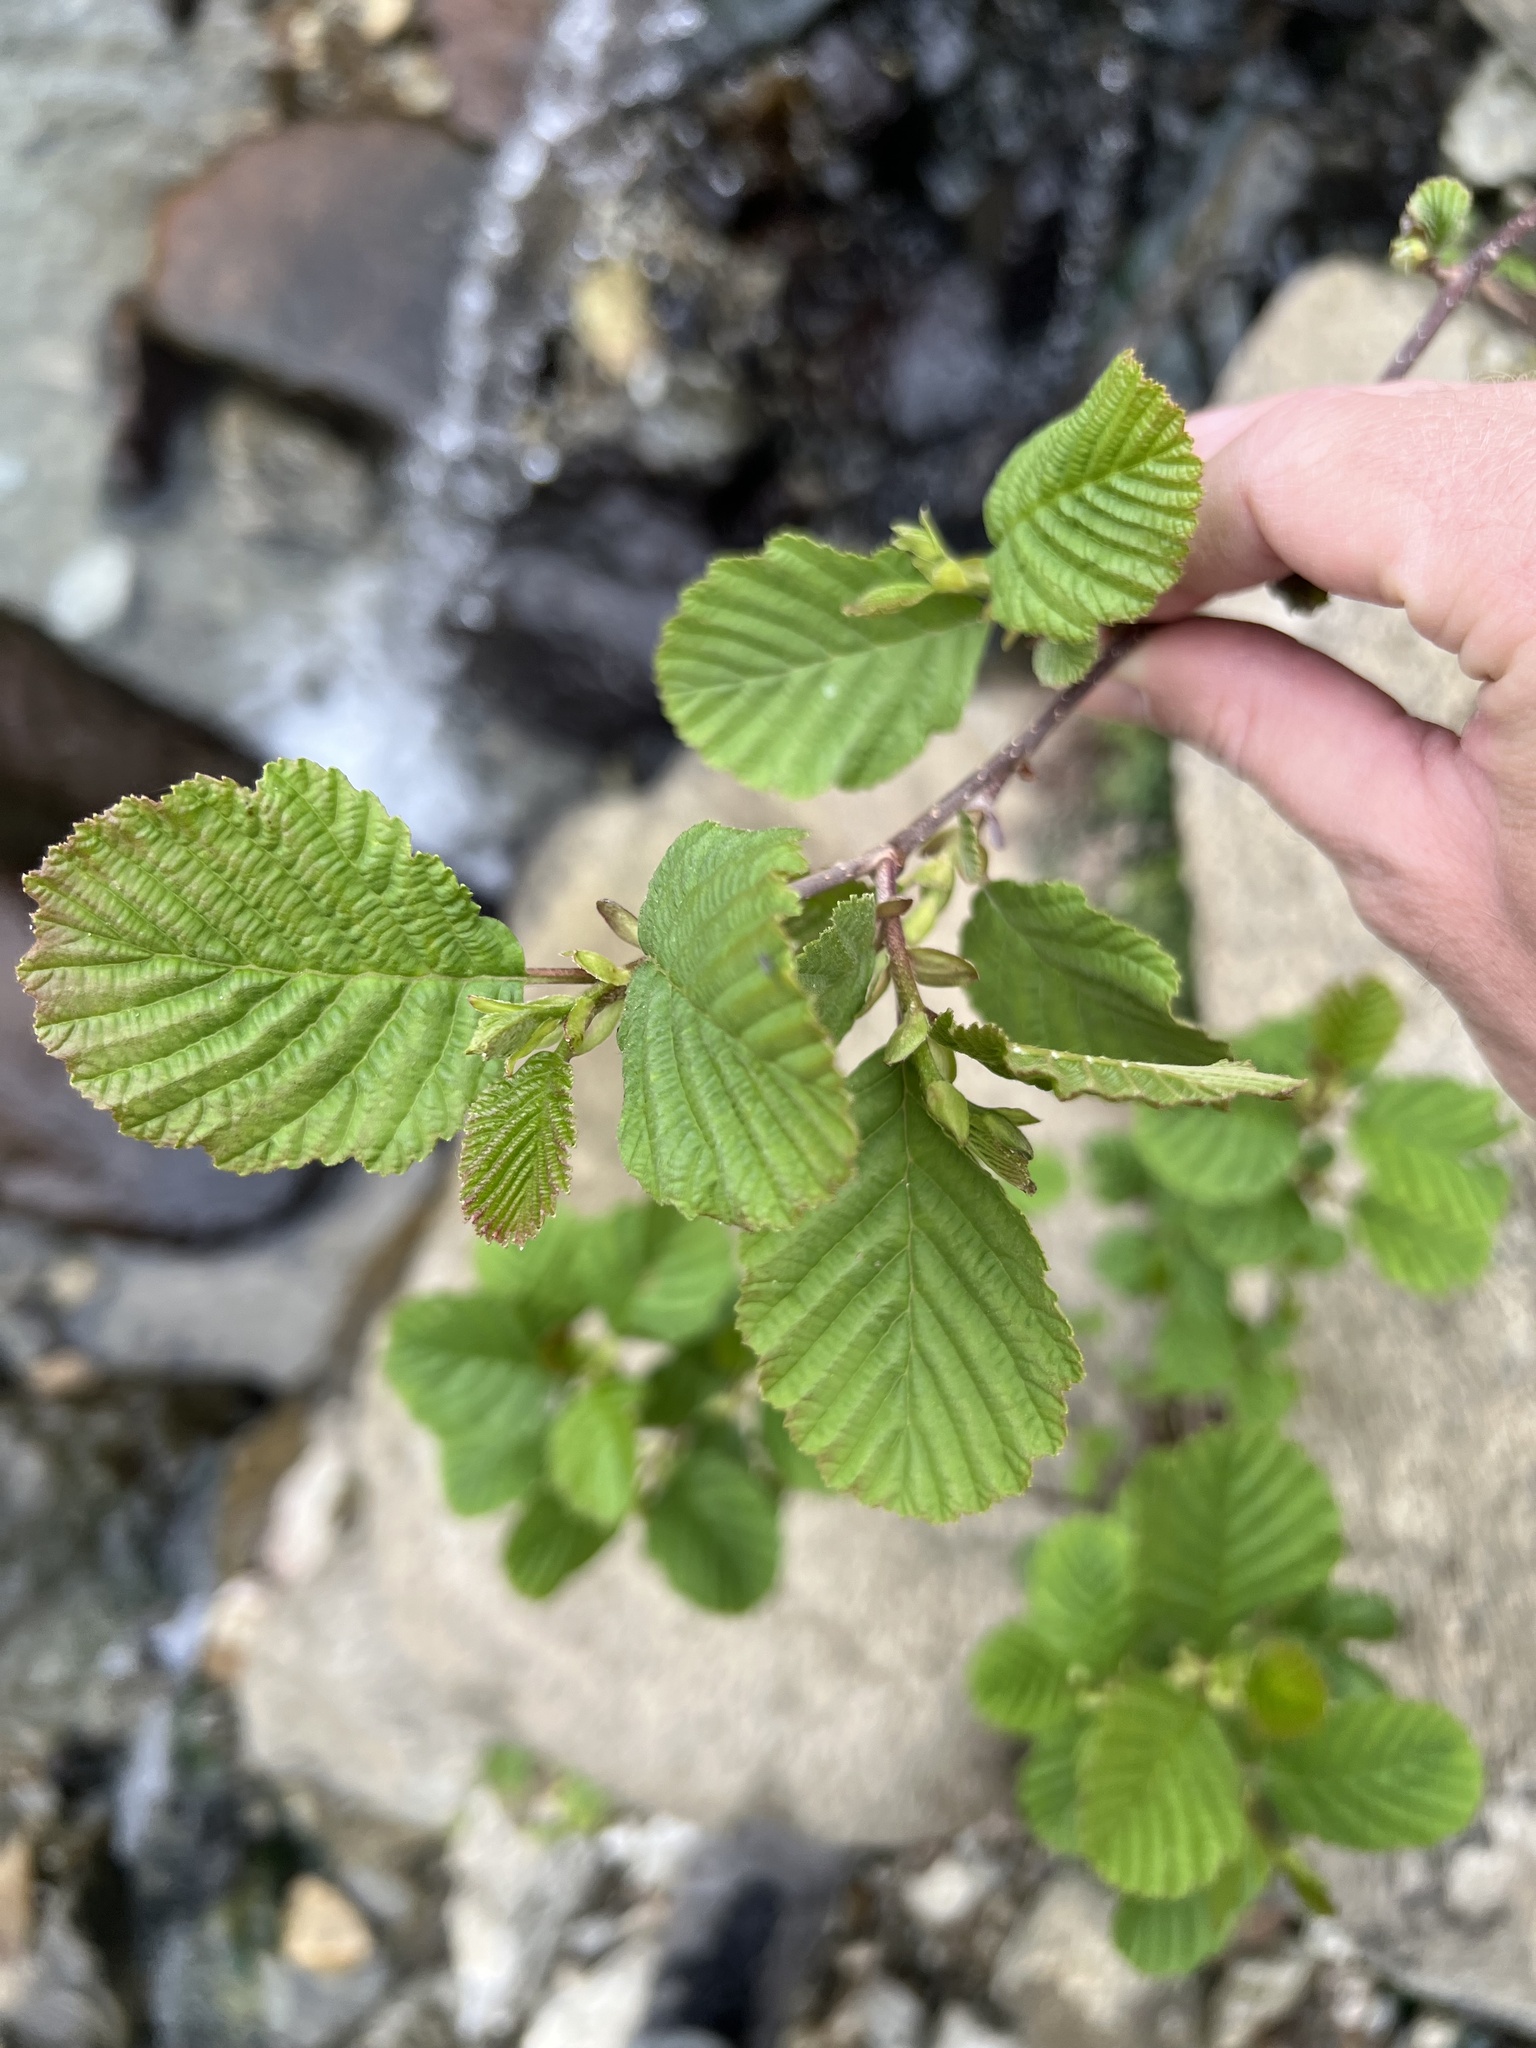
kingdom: Plantae
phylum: Tracheophyta
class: Magnoliopsida
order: Fagales
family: Betulaceae
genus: Alnus
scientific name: Alnus glutinosa
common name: Black alder
